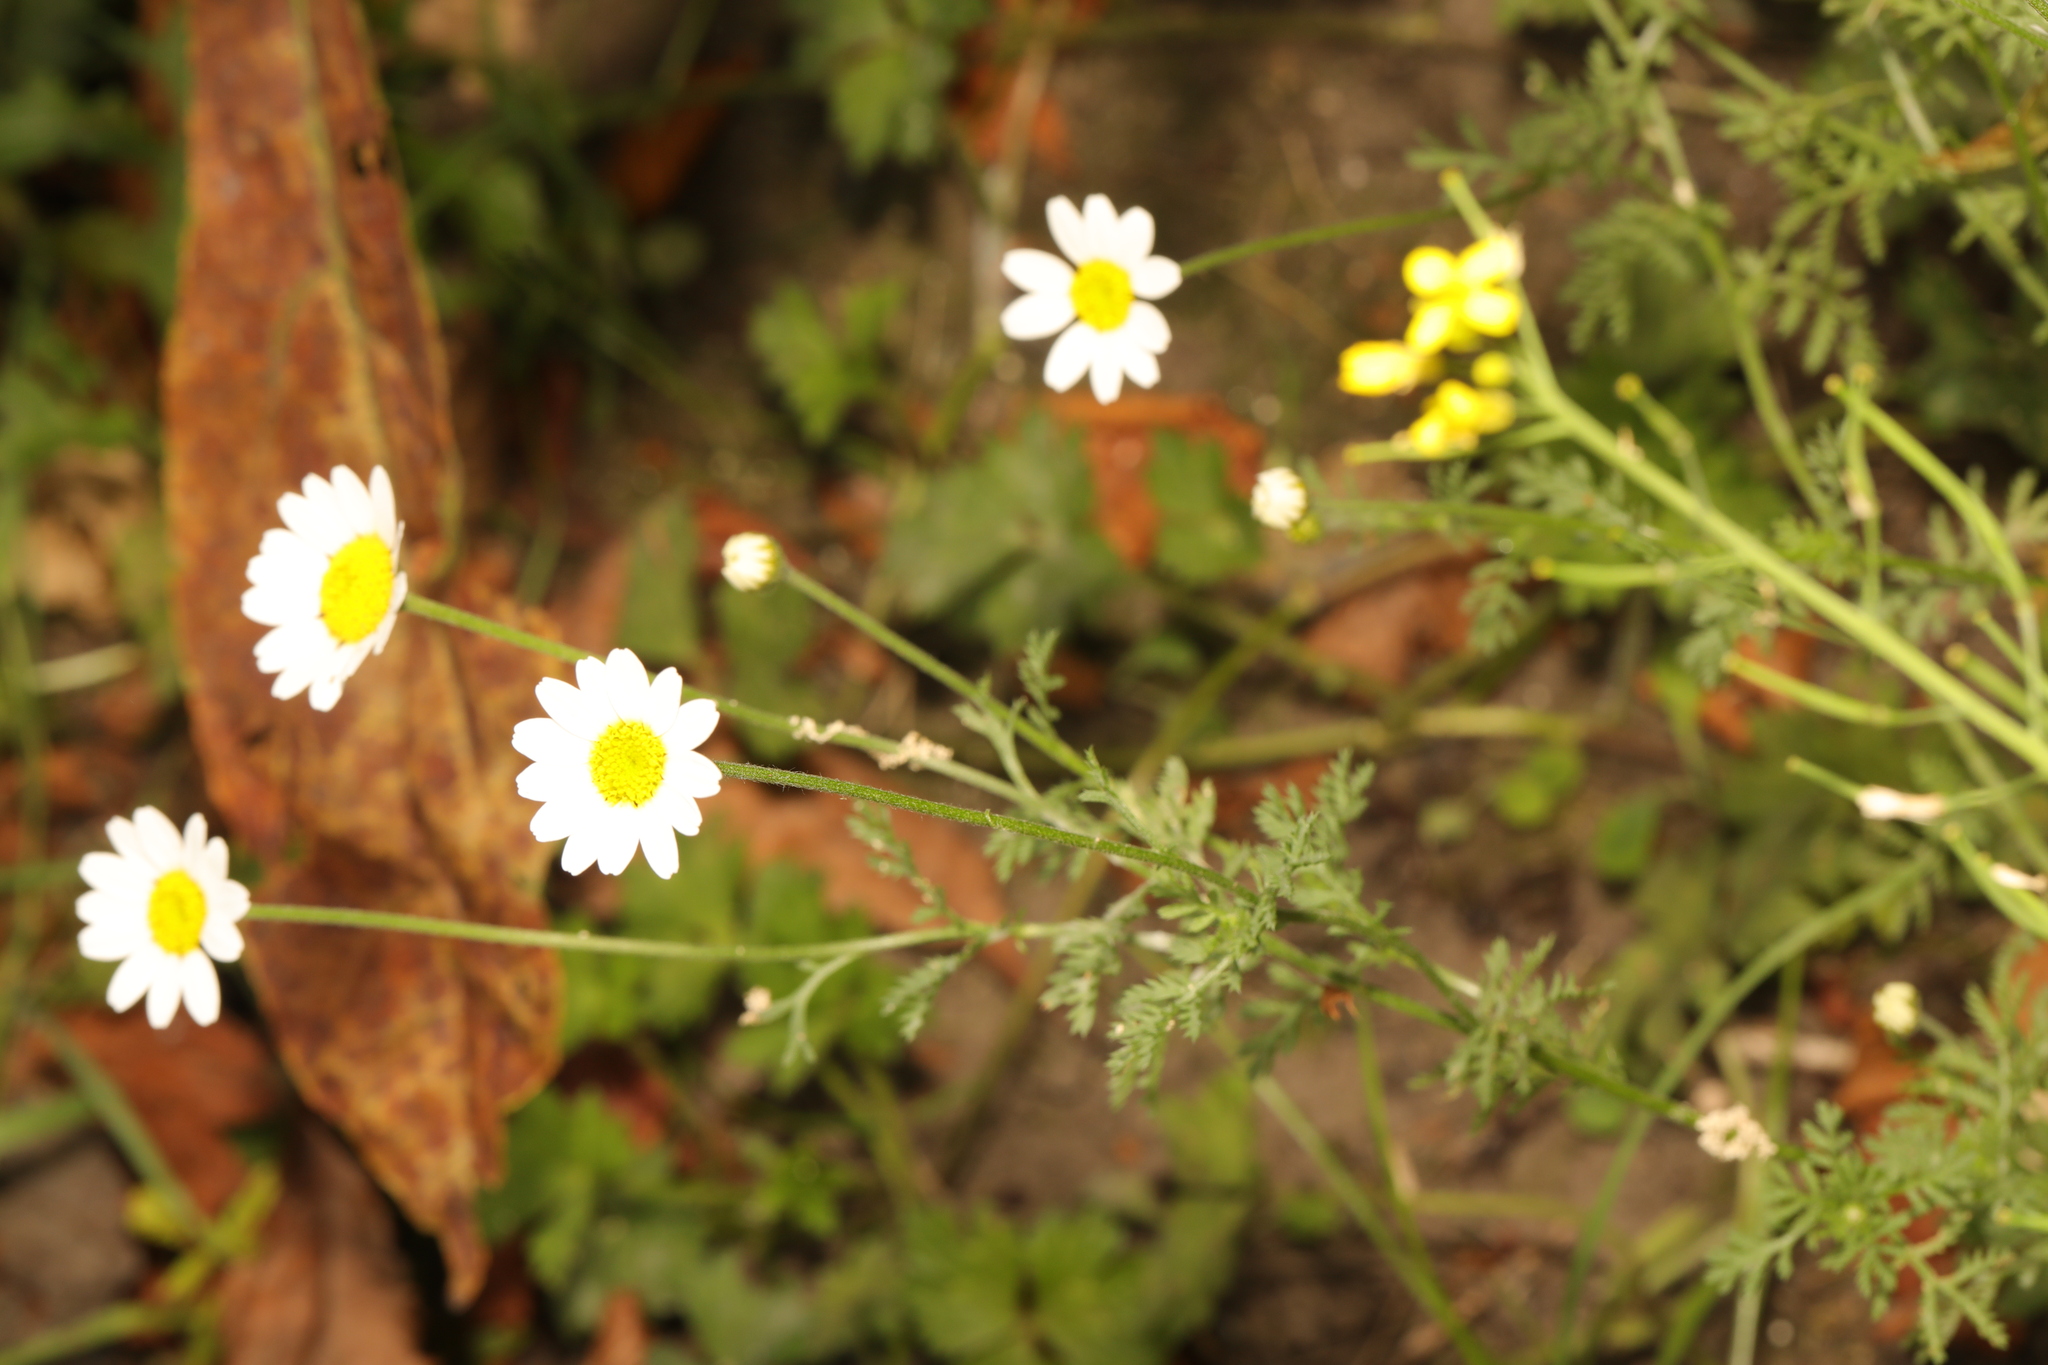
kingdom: Plantae
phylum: Tracheophyta
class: Magnoliopsida
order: Asterales
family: Asteraceae
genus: Cota
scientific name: Cota austriaca
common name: Austrian chamomile
